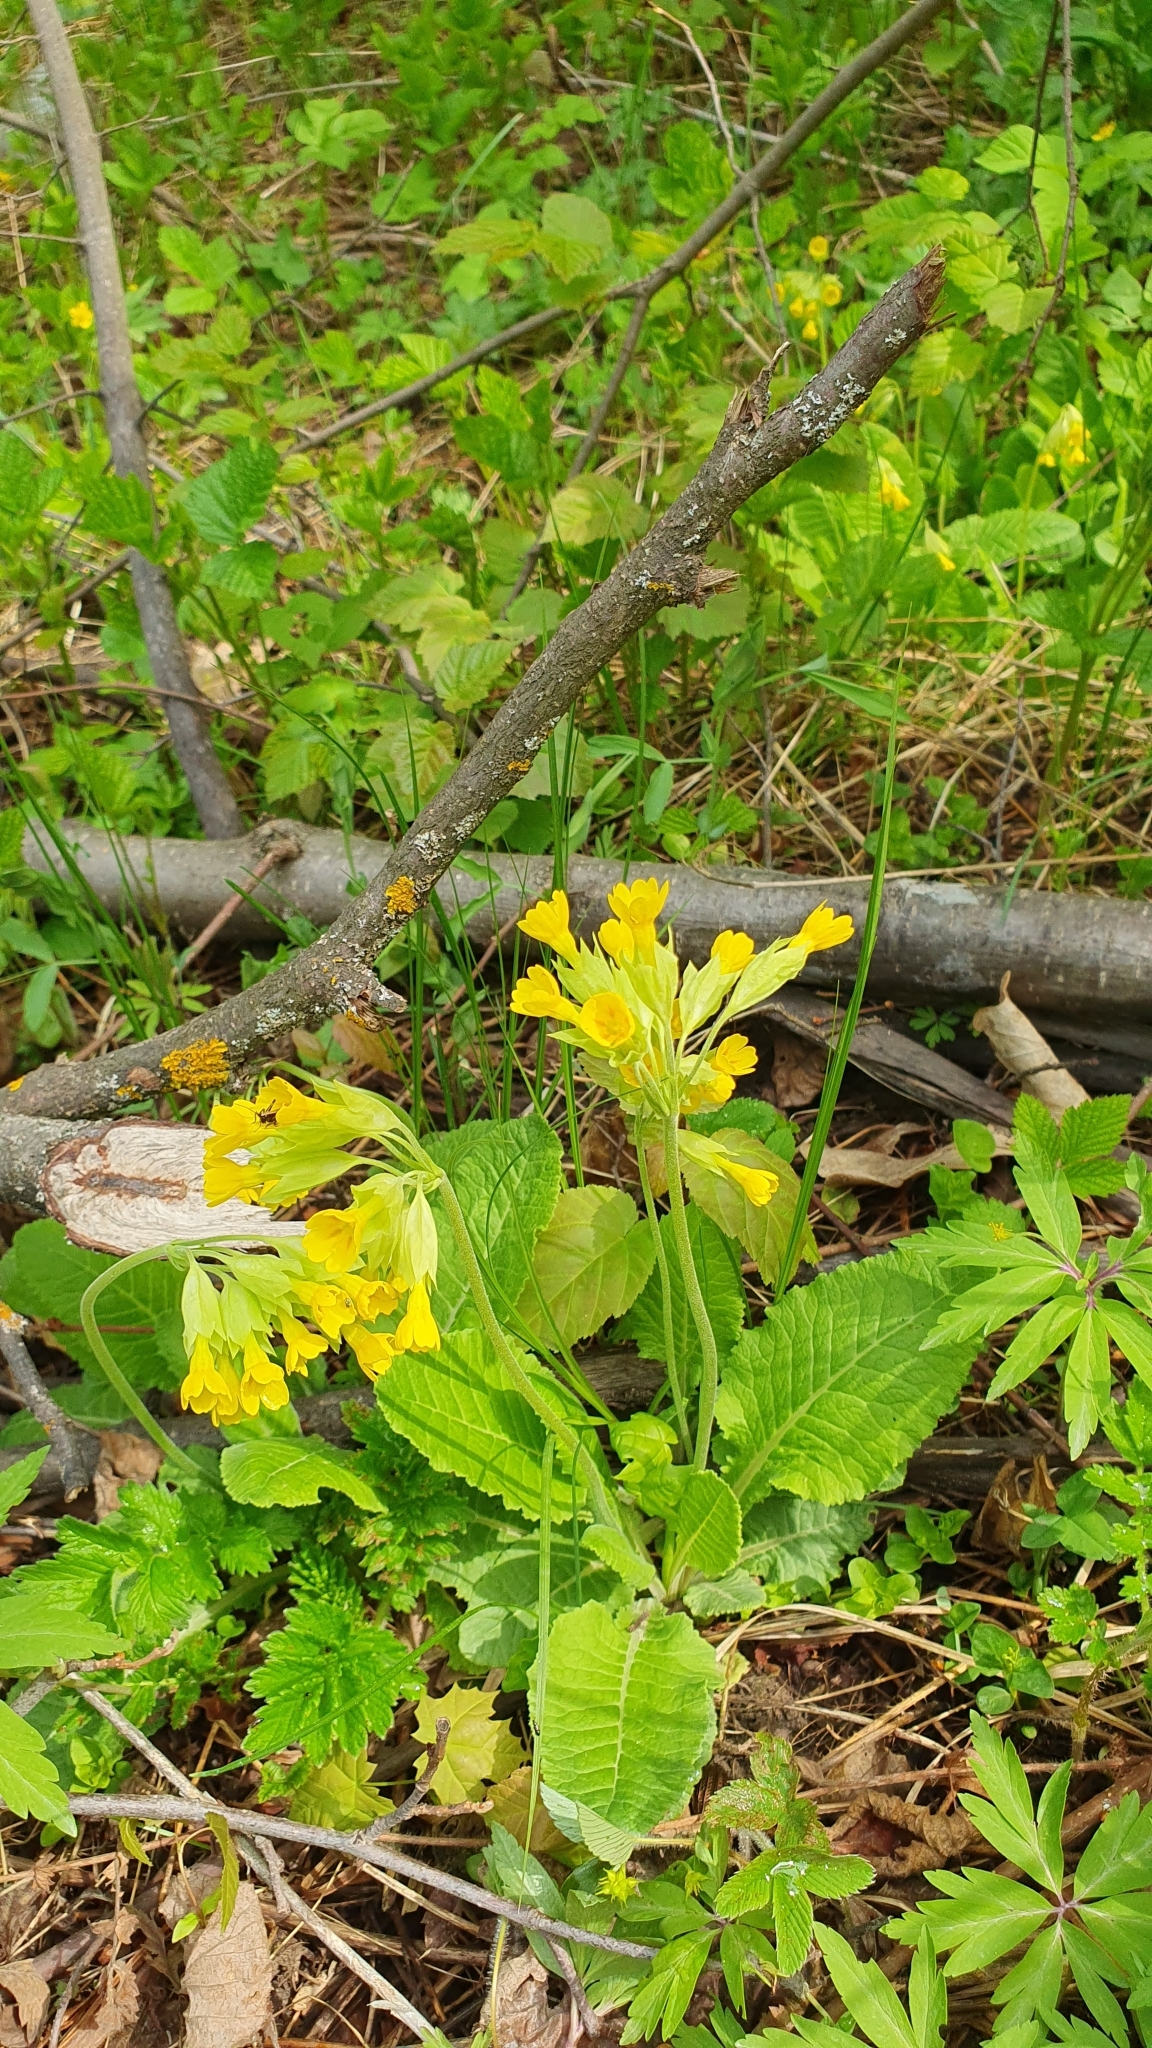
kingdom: Plantae
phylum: Tracheophyta
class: Magnoliopsida
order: Ericales
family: Primulaceae
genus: Primula
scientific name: Primula veris
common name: Cowslip
